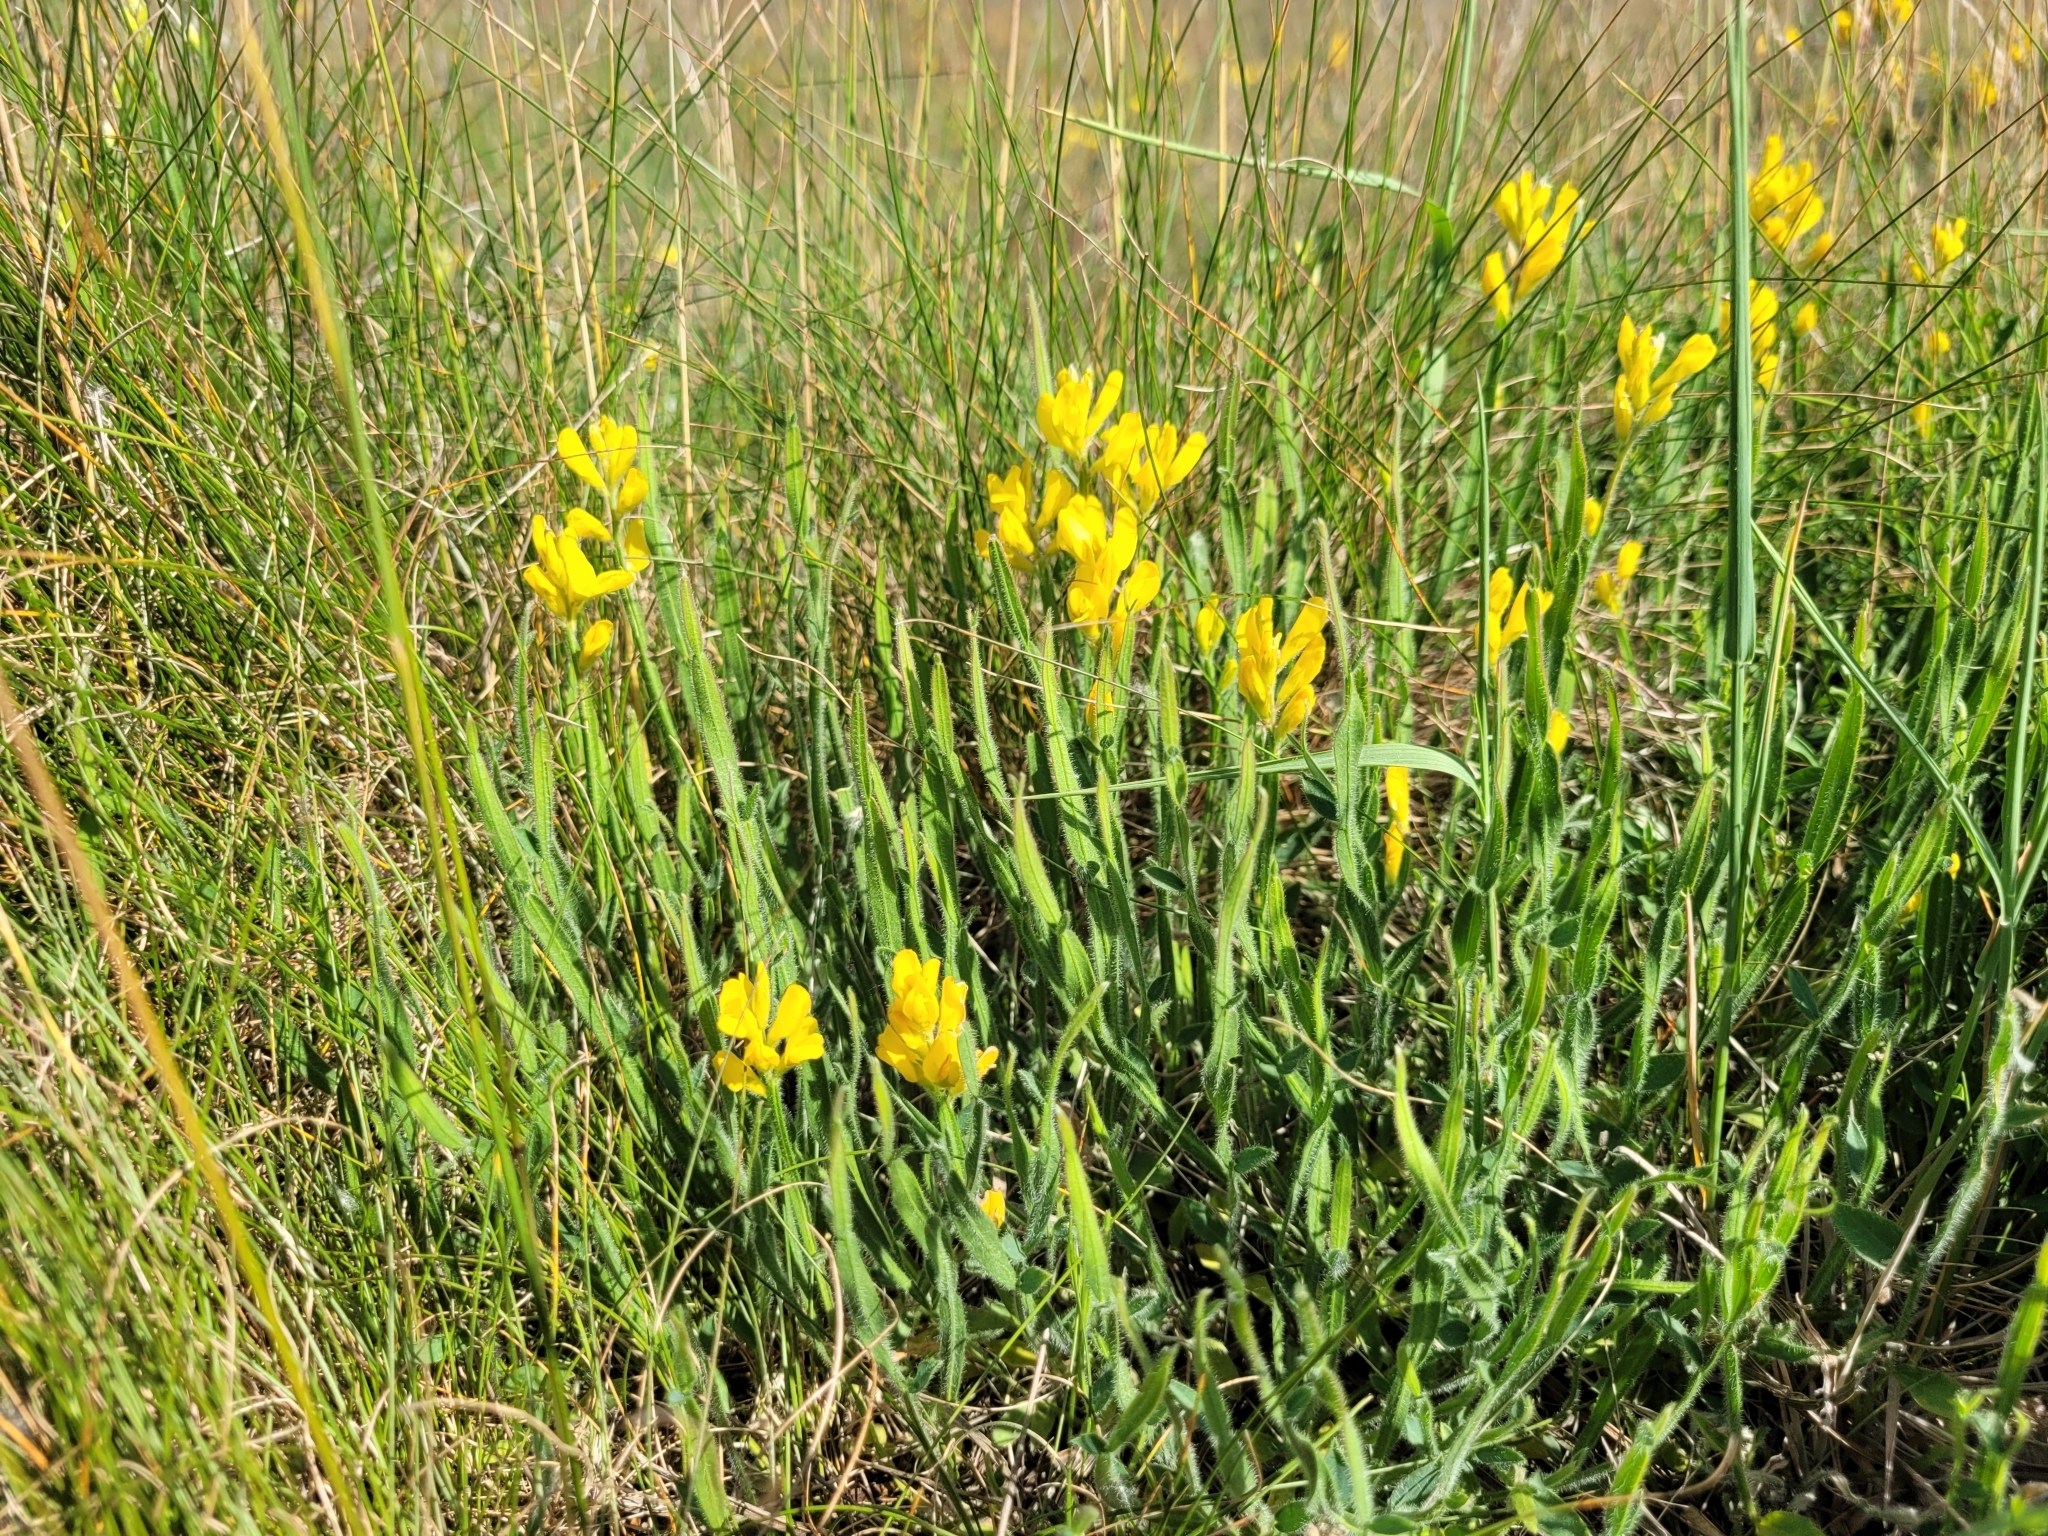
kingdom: Plantae
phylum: Tracheophyta
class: Magnoliopsida
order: Fabales
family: Fabaceae
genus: Genista
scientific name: Genista sagittalis
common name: Winged greenweed
